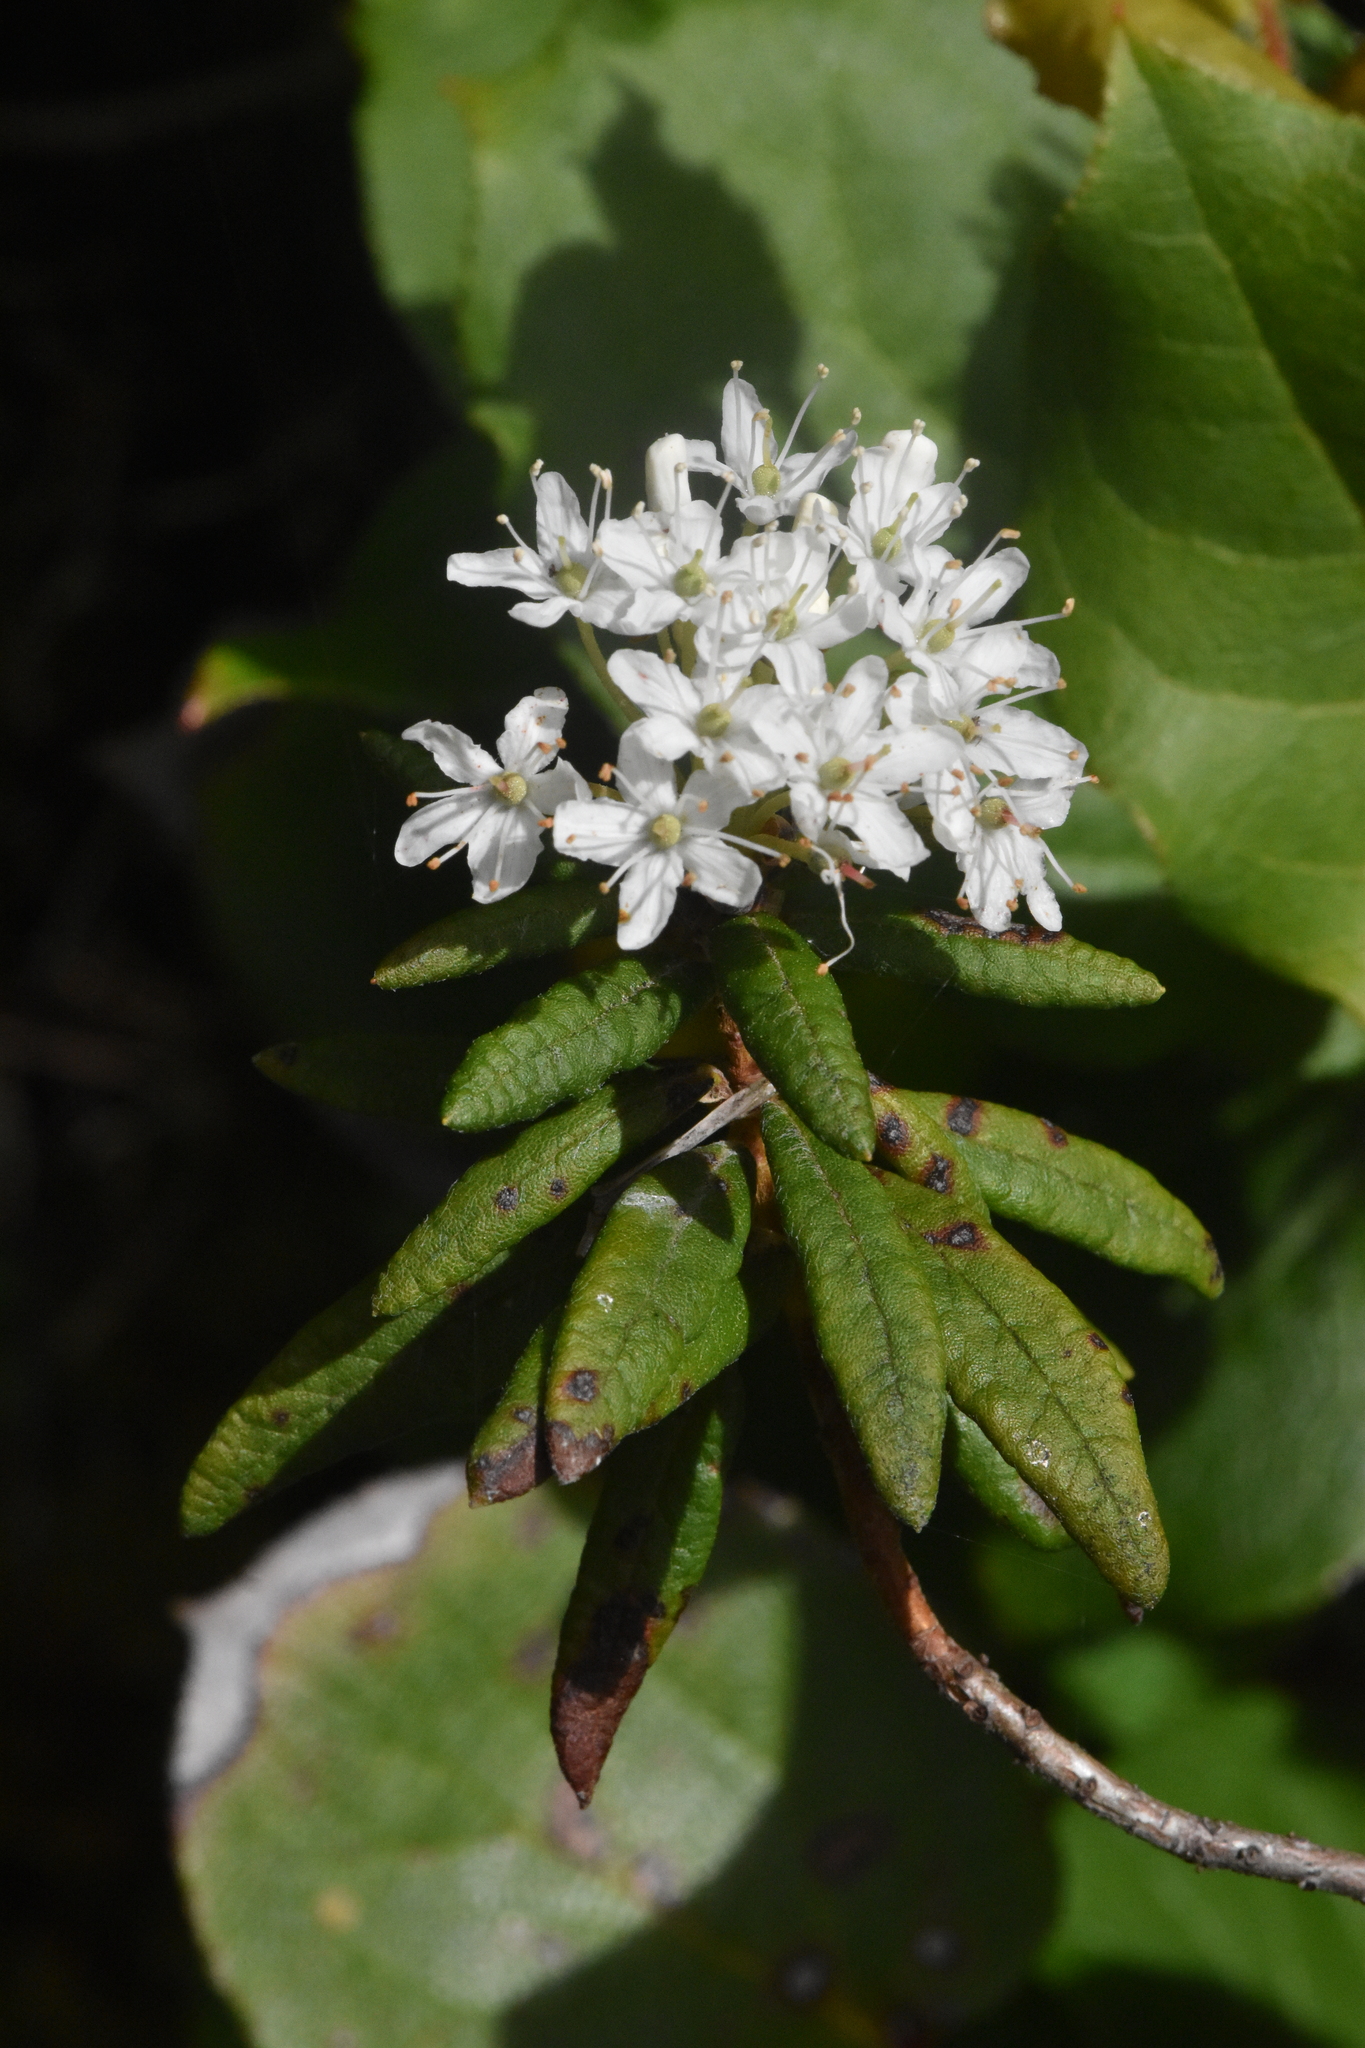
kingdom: Plantae
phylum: Tracheophyta
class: Magnoliopsida
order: Ericales
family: Ericaceae
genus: Rhododendron
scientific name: Rhododendron groenlandicum
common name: Bog labrador tea
